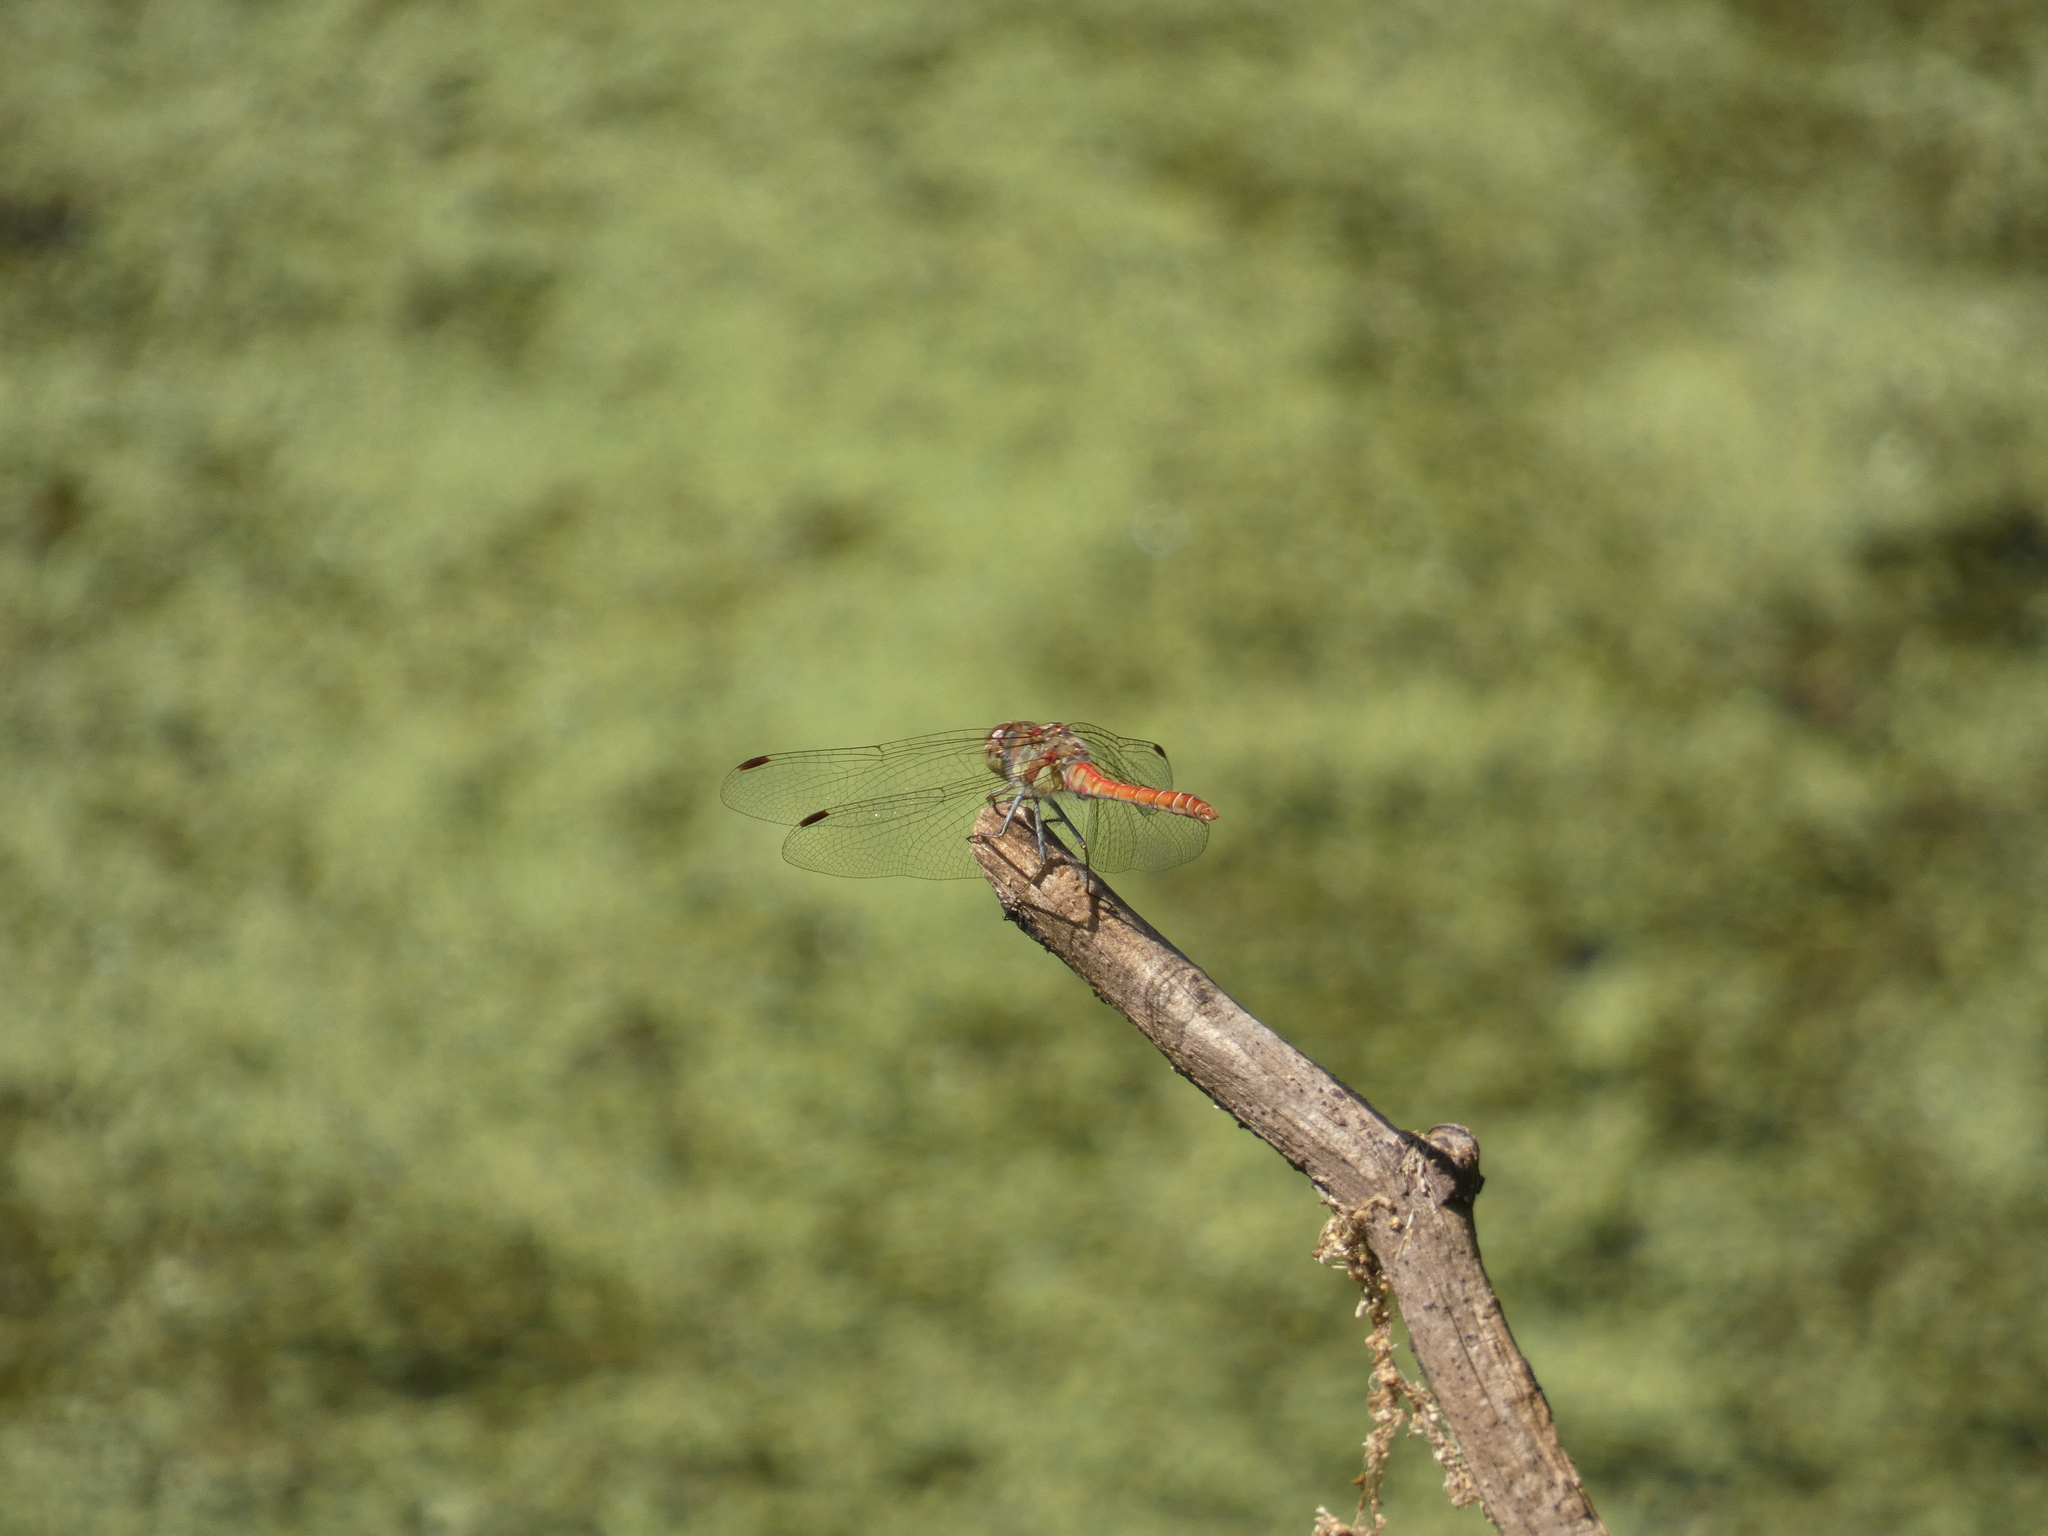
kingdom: Animalia
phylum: Arthropoda
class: Insecta
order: Odonata
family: Libellulidae
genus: Sympetrum
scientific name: Sympetrum striolatum
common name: Common darter
